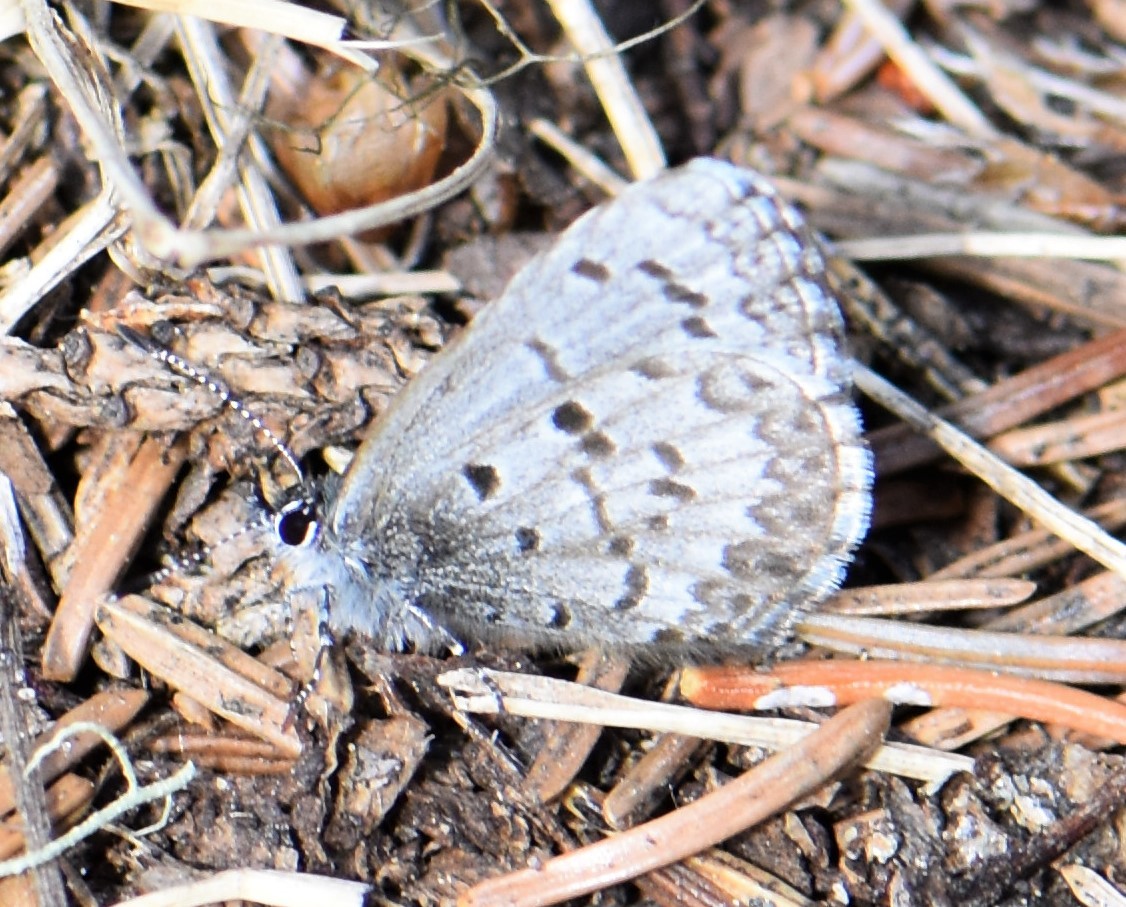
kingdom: Animalia
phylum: Arthropoda
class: Insecta
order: Lepidoptera
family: Lycaenidae
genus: Celastrina
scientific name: Celastrina lucia
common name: Lucia azure
